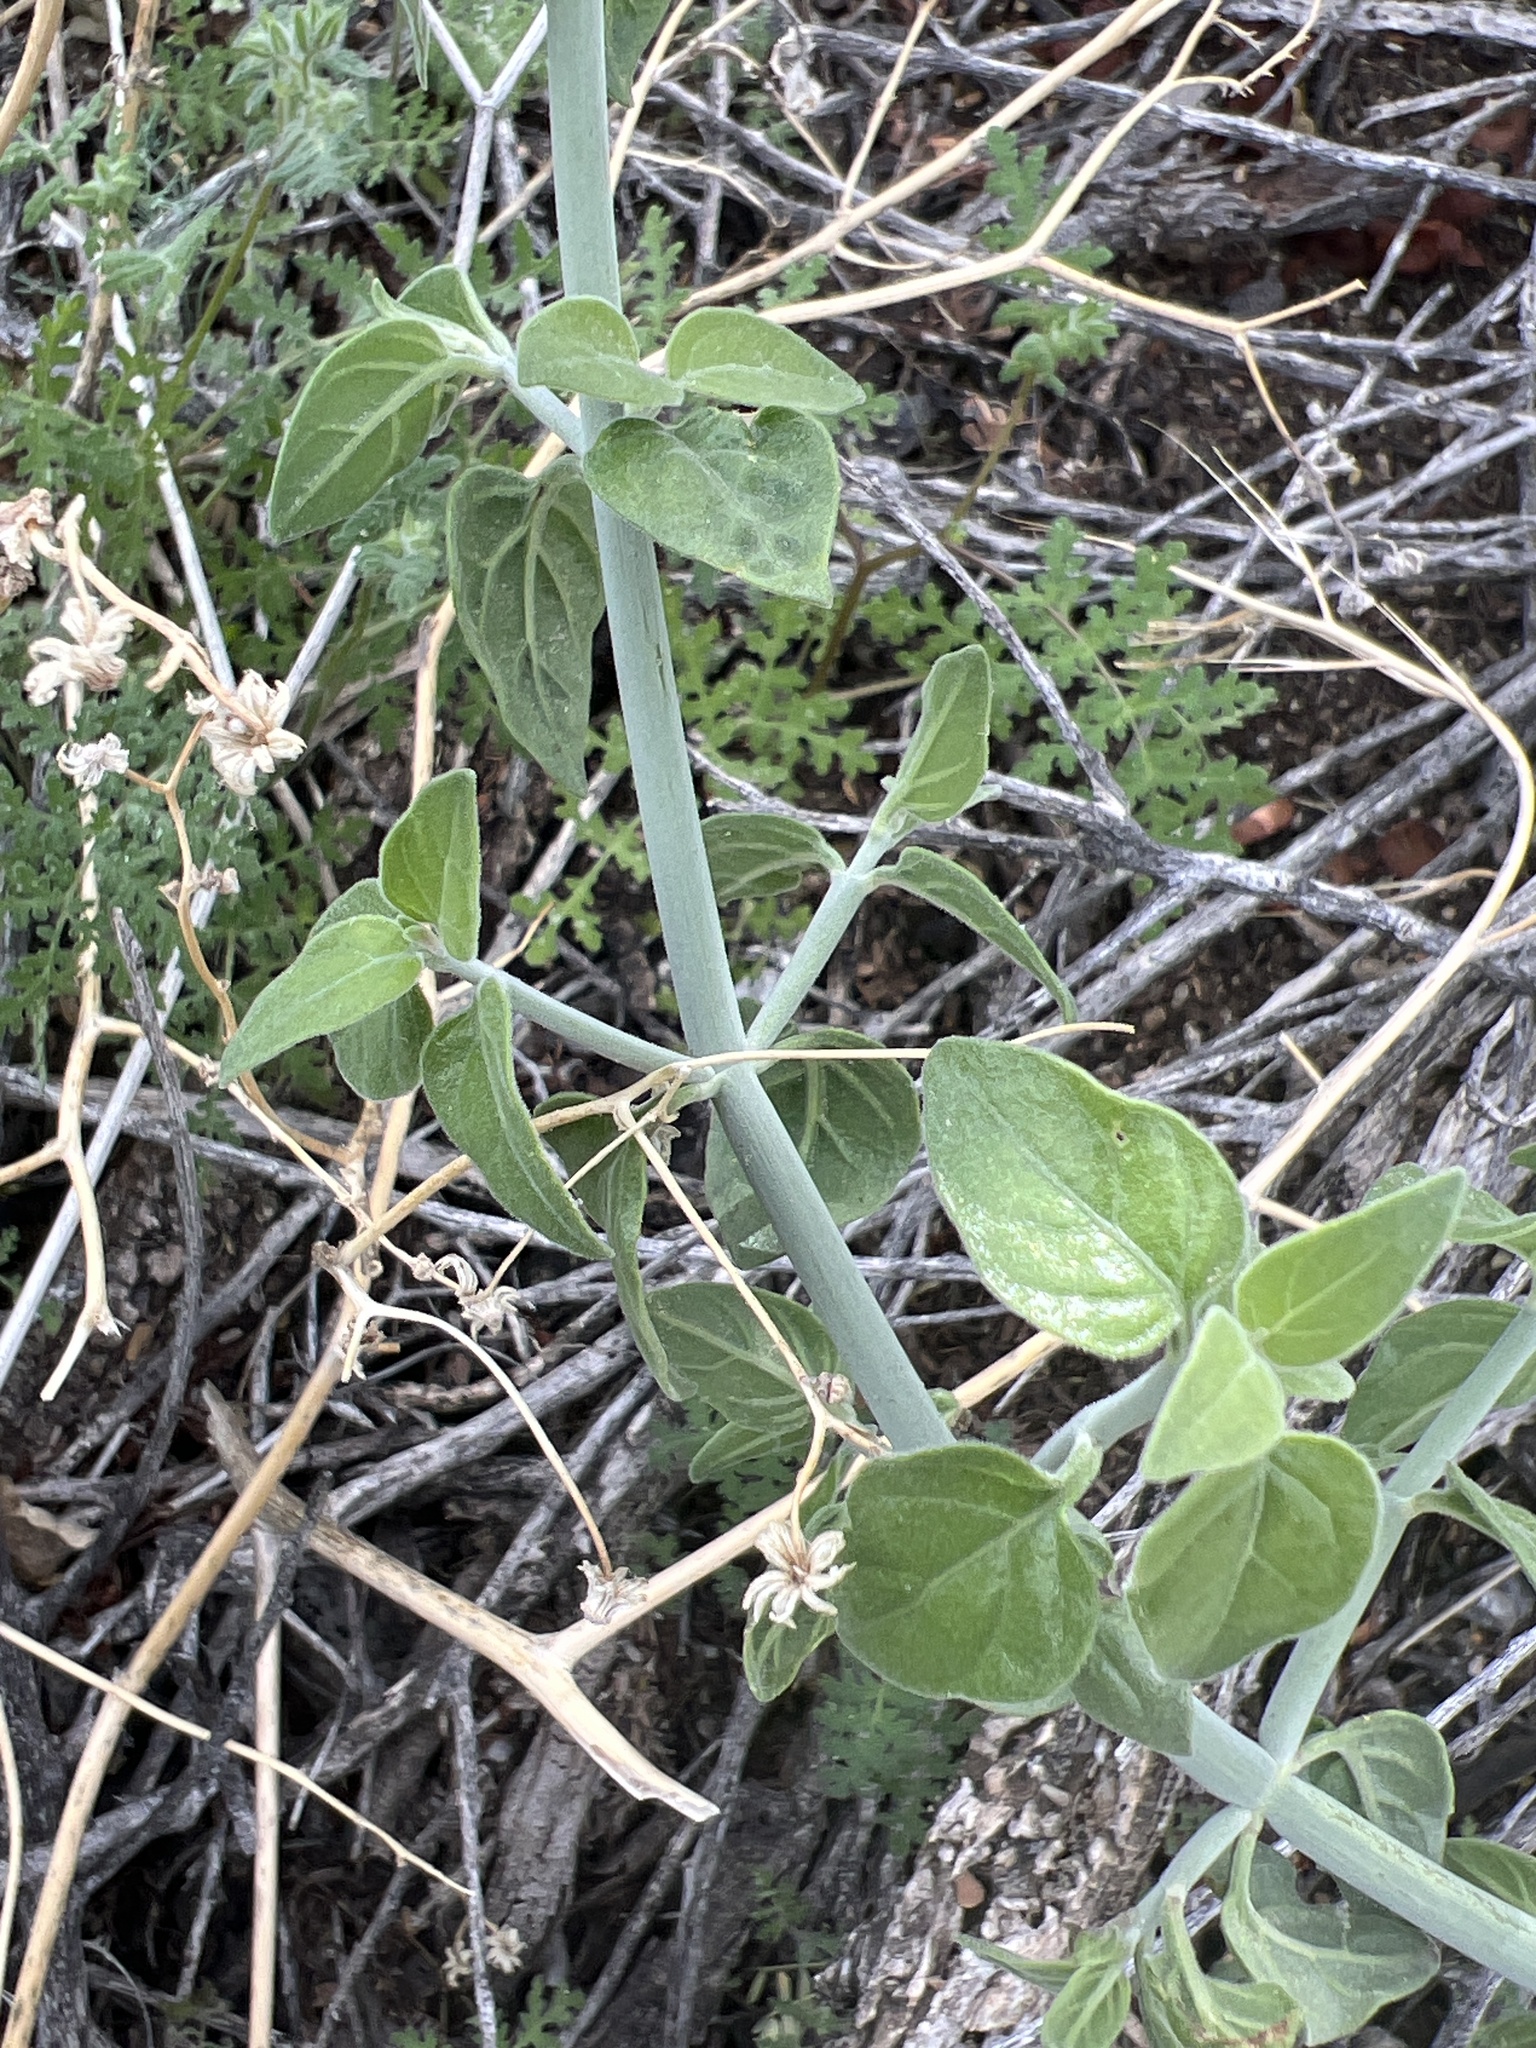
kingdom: Plantae
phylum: Tracheophyta
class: Magnoliopsida
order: Lamiales
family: Acanthaceae
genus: Justicia
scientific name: Justicia californica
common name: Chuparosa-honeysuckle
